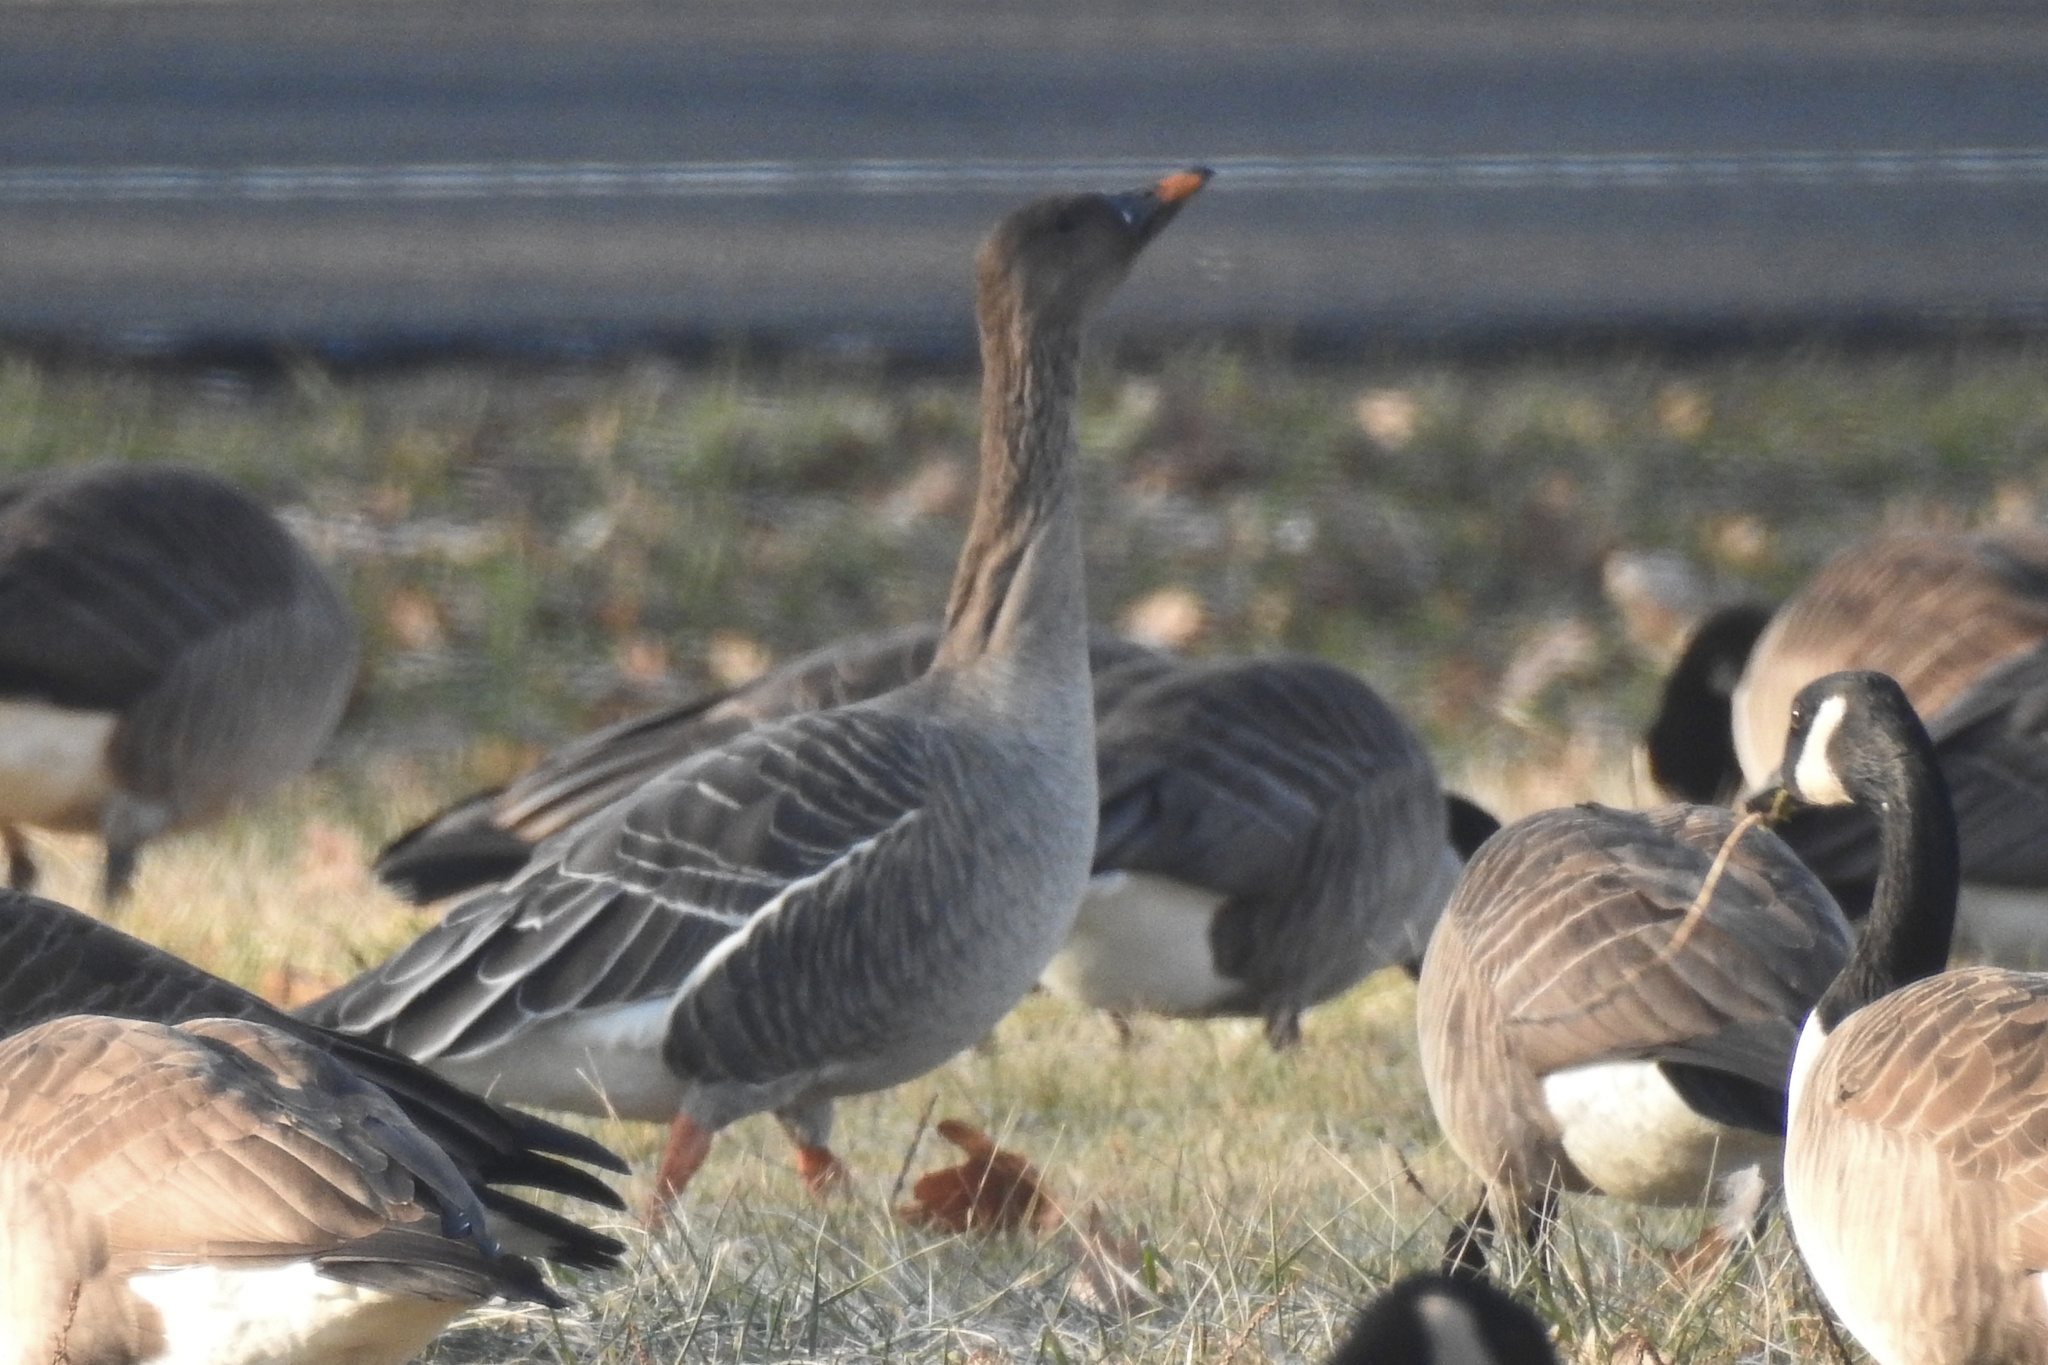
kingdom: Animalia
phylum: Chordata
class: Aves
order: Anseriformes
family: Anatidae
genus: Anser
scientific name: Anser serrirostris
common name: Tundra bean goose
